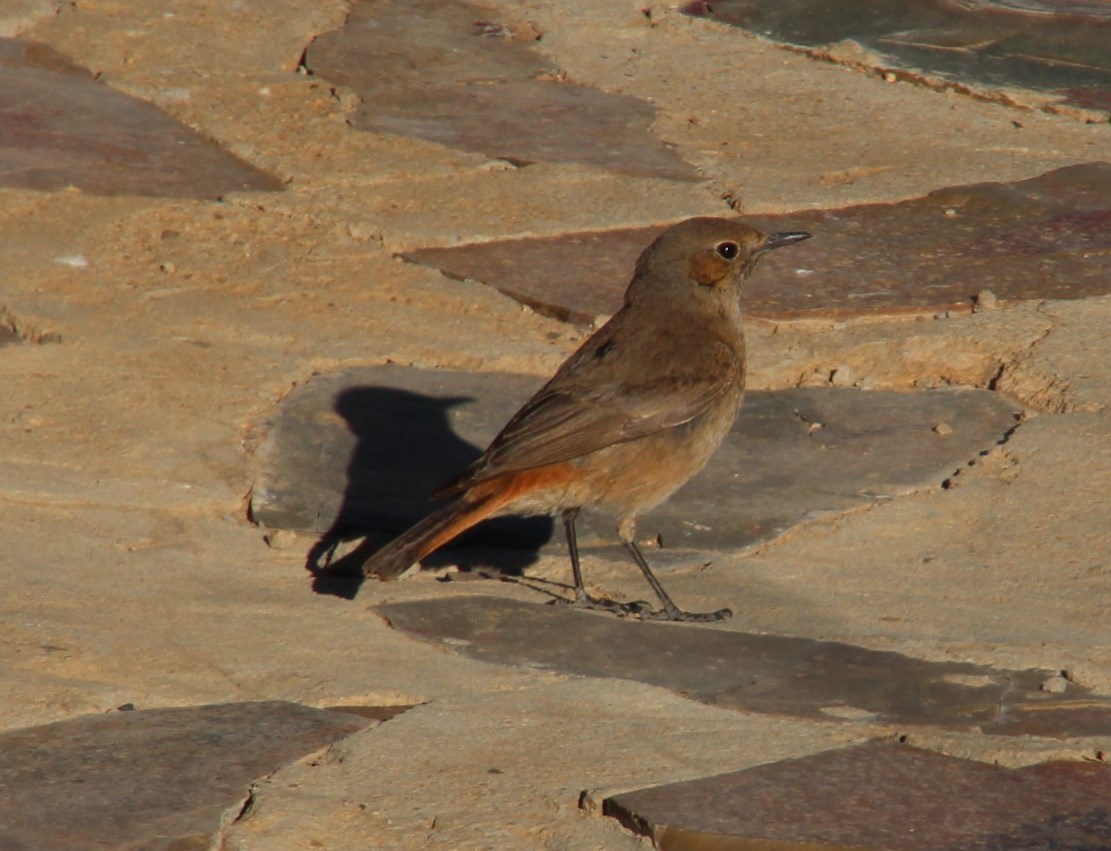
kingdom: Animalia
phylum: Chordata
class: Aves
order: Passeriformes
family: Muscicapidae
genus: Oenanthe
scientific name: Oenanthe familiaris
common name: Familiar chat
